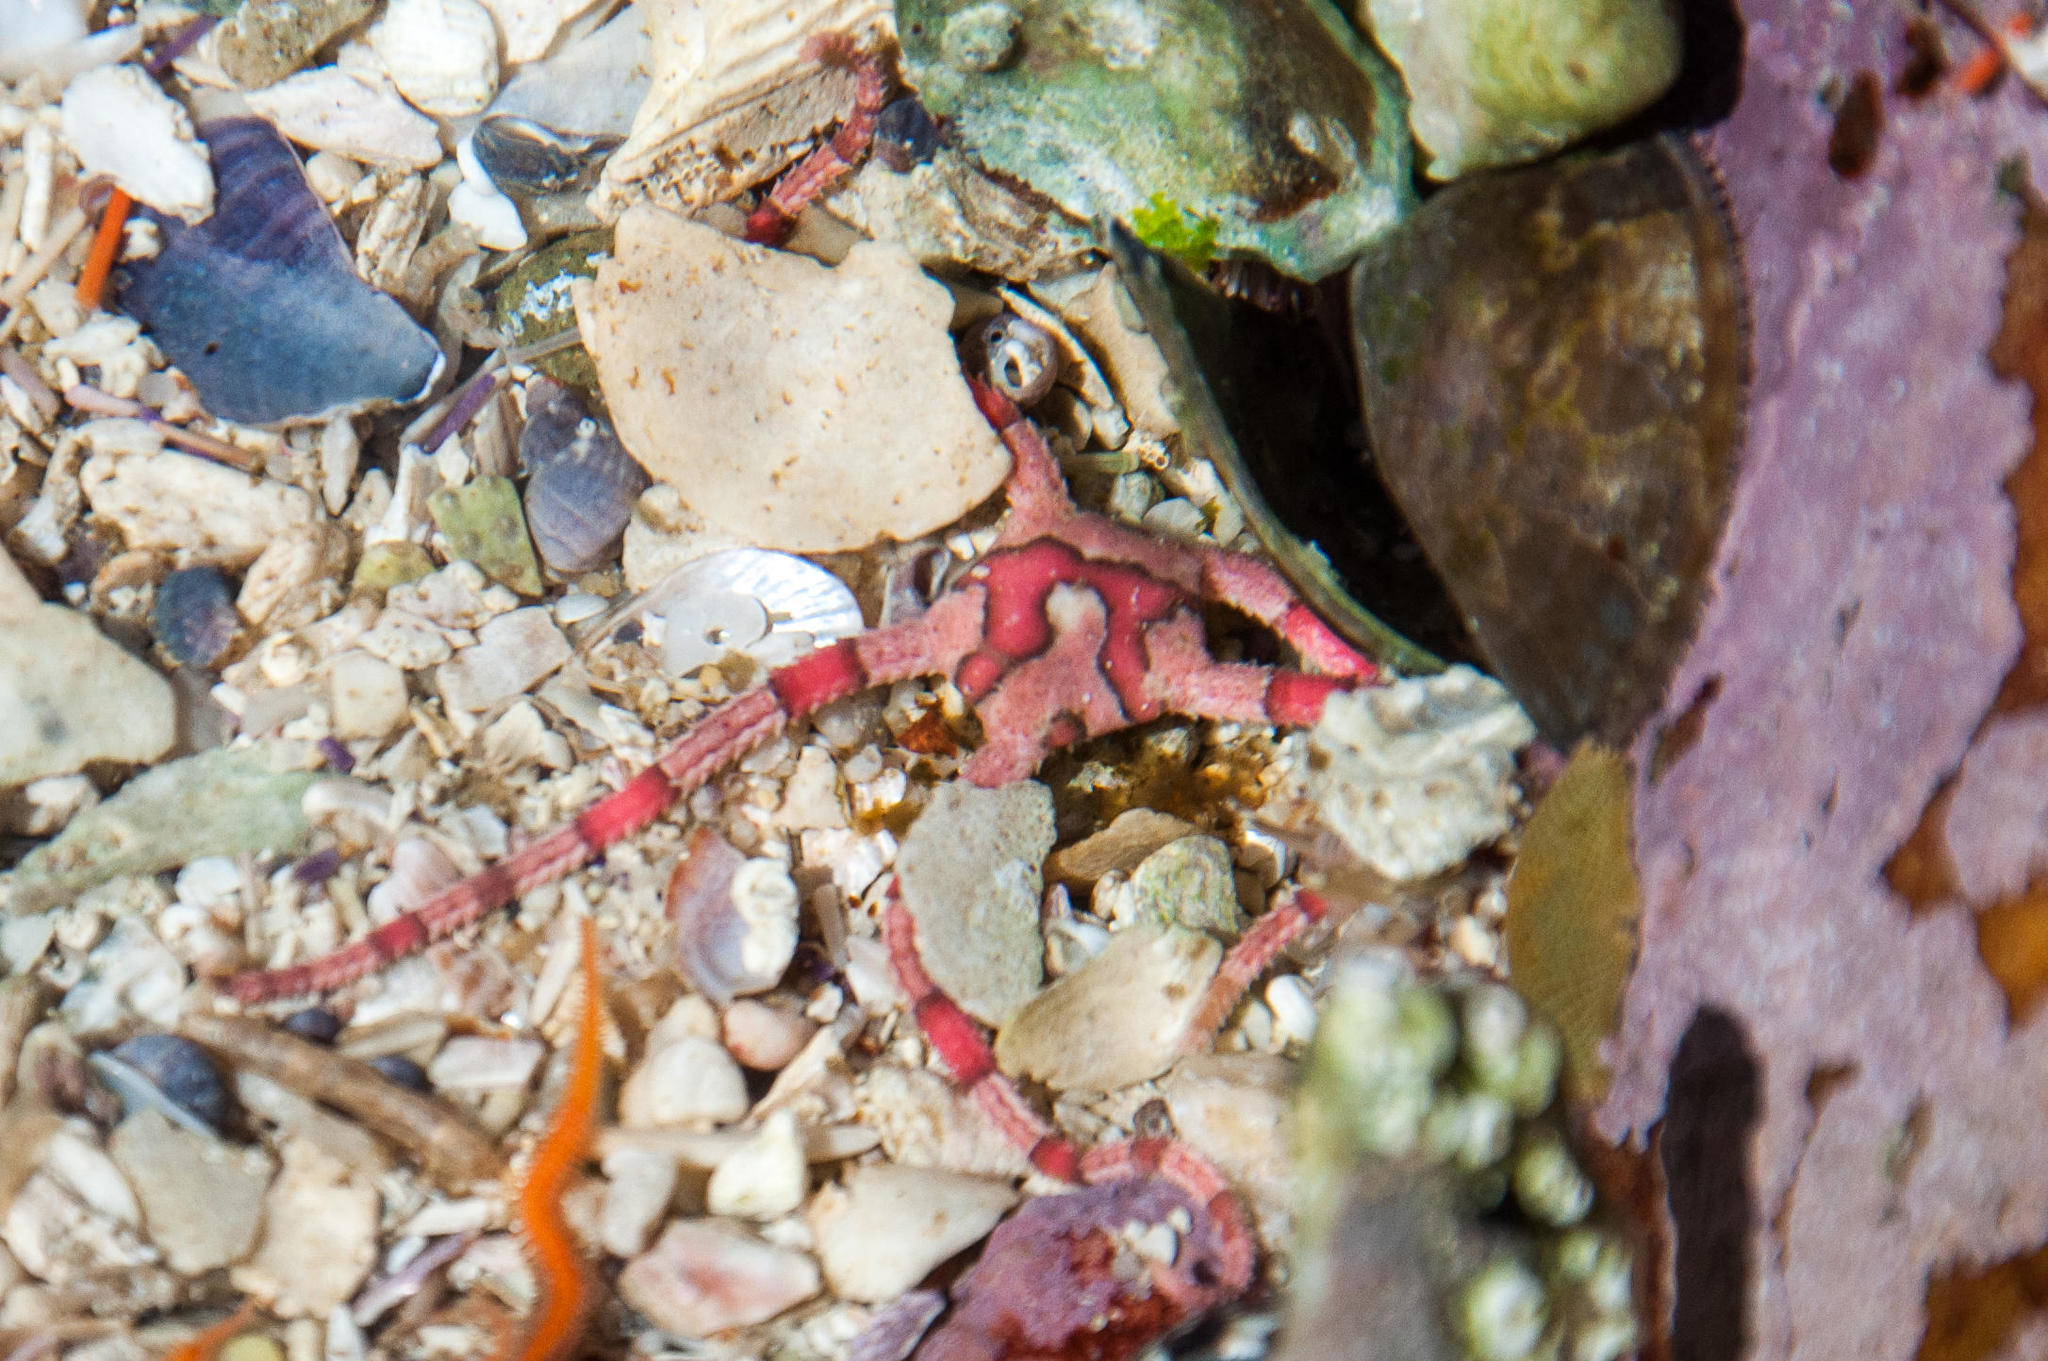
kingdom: Animalia
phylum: Echinodermata
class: Ophiuroidea
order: Ophiacanthida
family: Ophiodermatidae
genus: Ophiarachnella
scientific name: Ophiarachnella capensis
